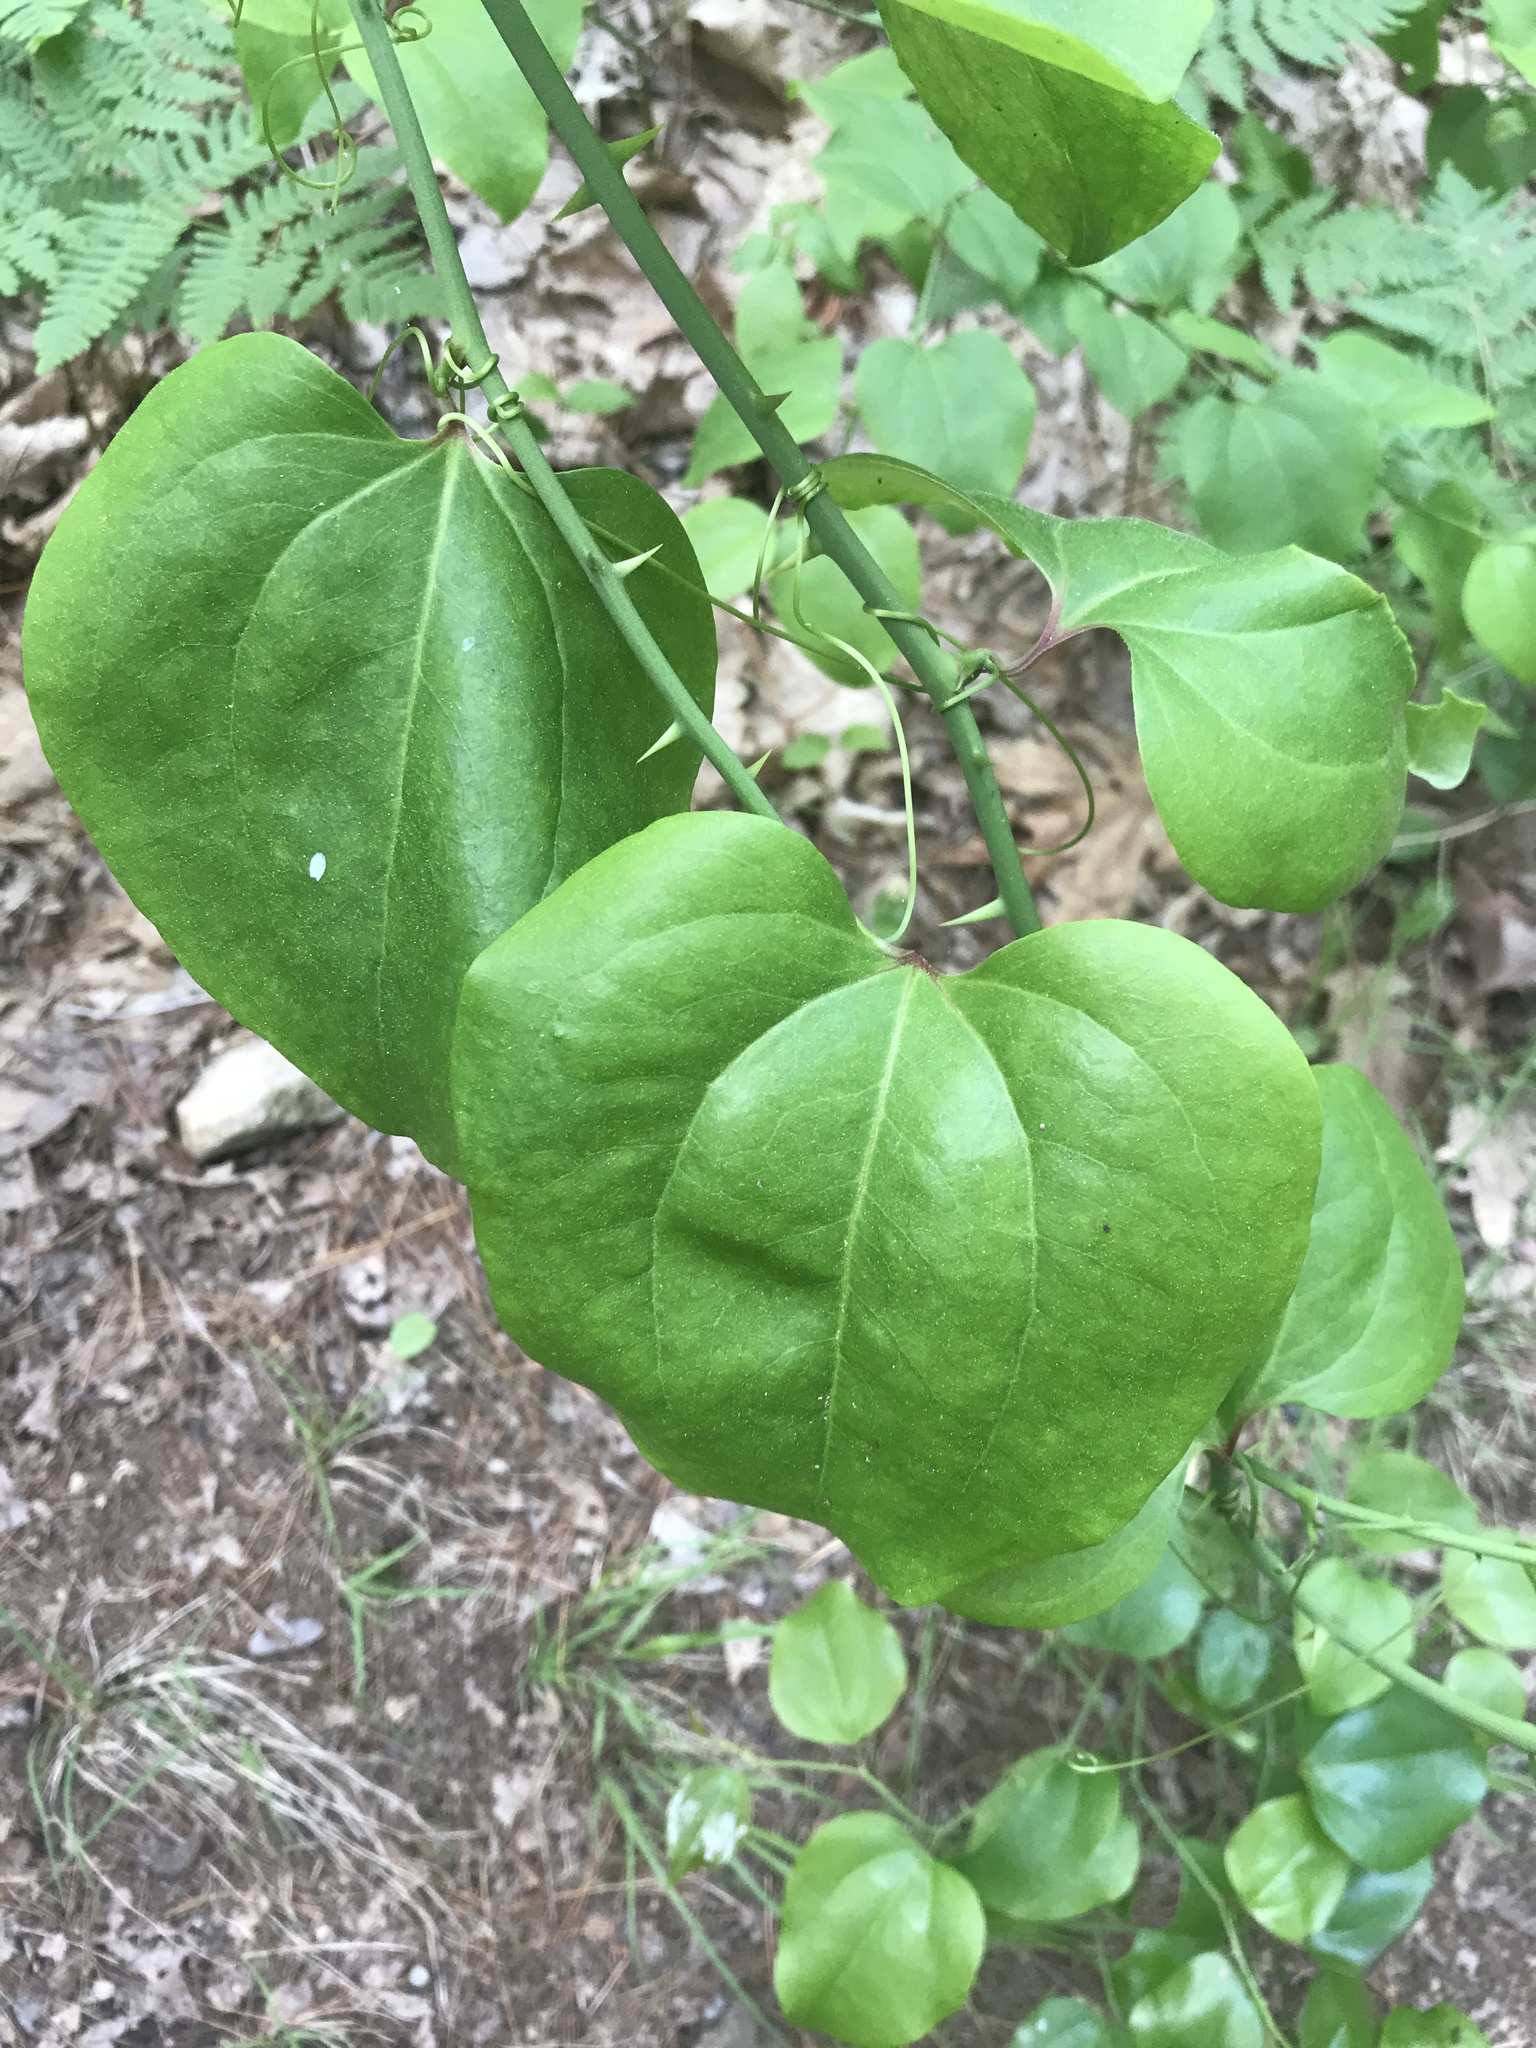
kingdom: Plantae
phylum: Tracheophyta
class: Liliopsida
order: Liliales
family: Smilacaceae
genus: Smilax
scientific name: Smilax rotundifolia
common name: Bullbriar
